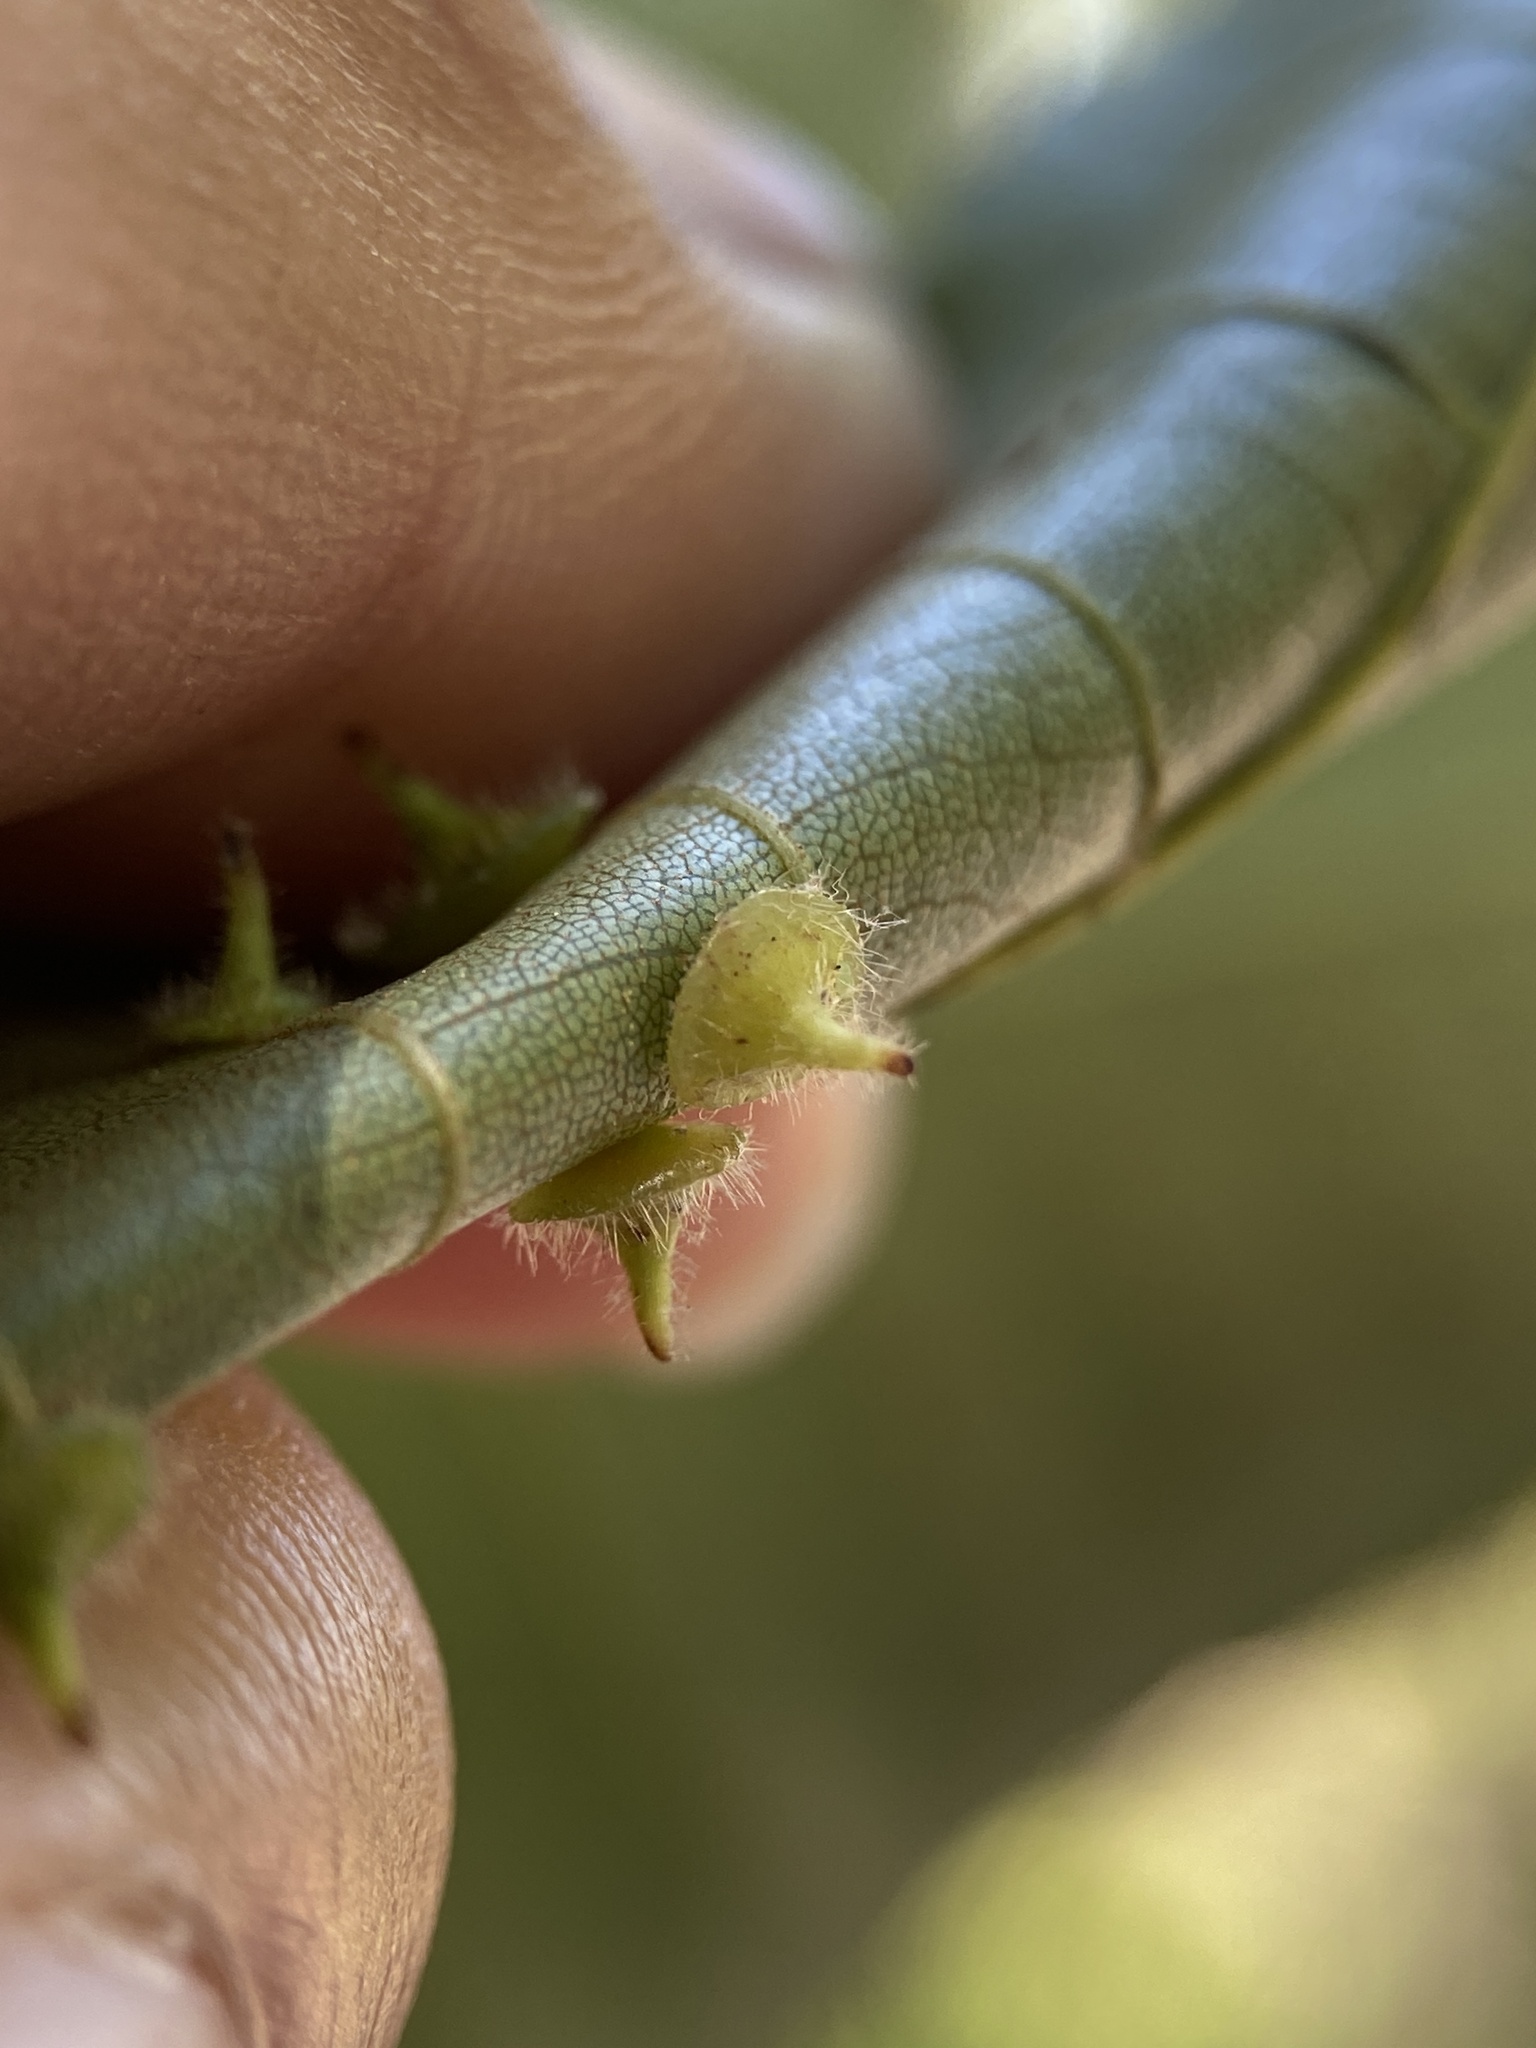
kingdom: Animalia
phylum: Arthropoda
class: Insecta
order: Diptera
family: Cecidomyiidae
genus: Caryomyia
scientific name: Caryomyia sanguinolenta
